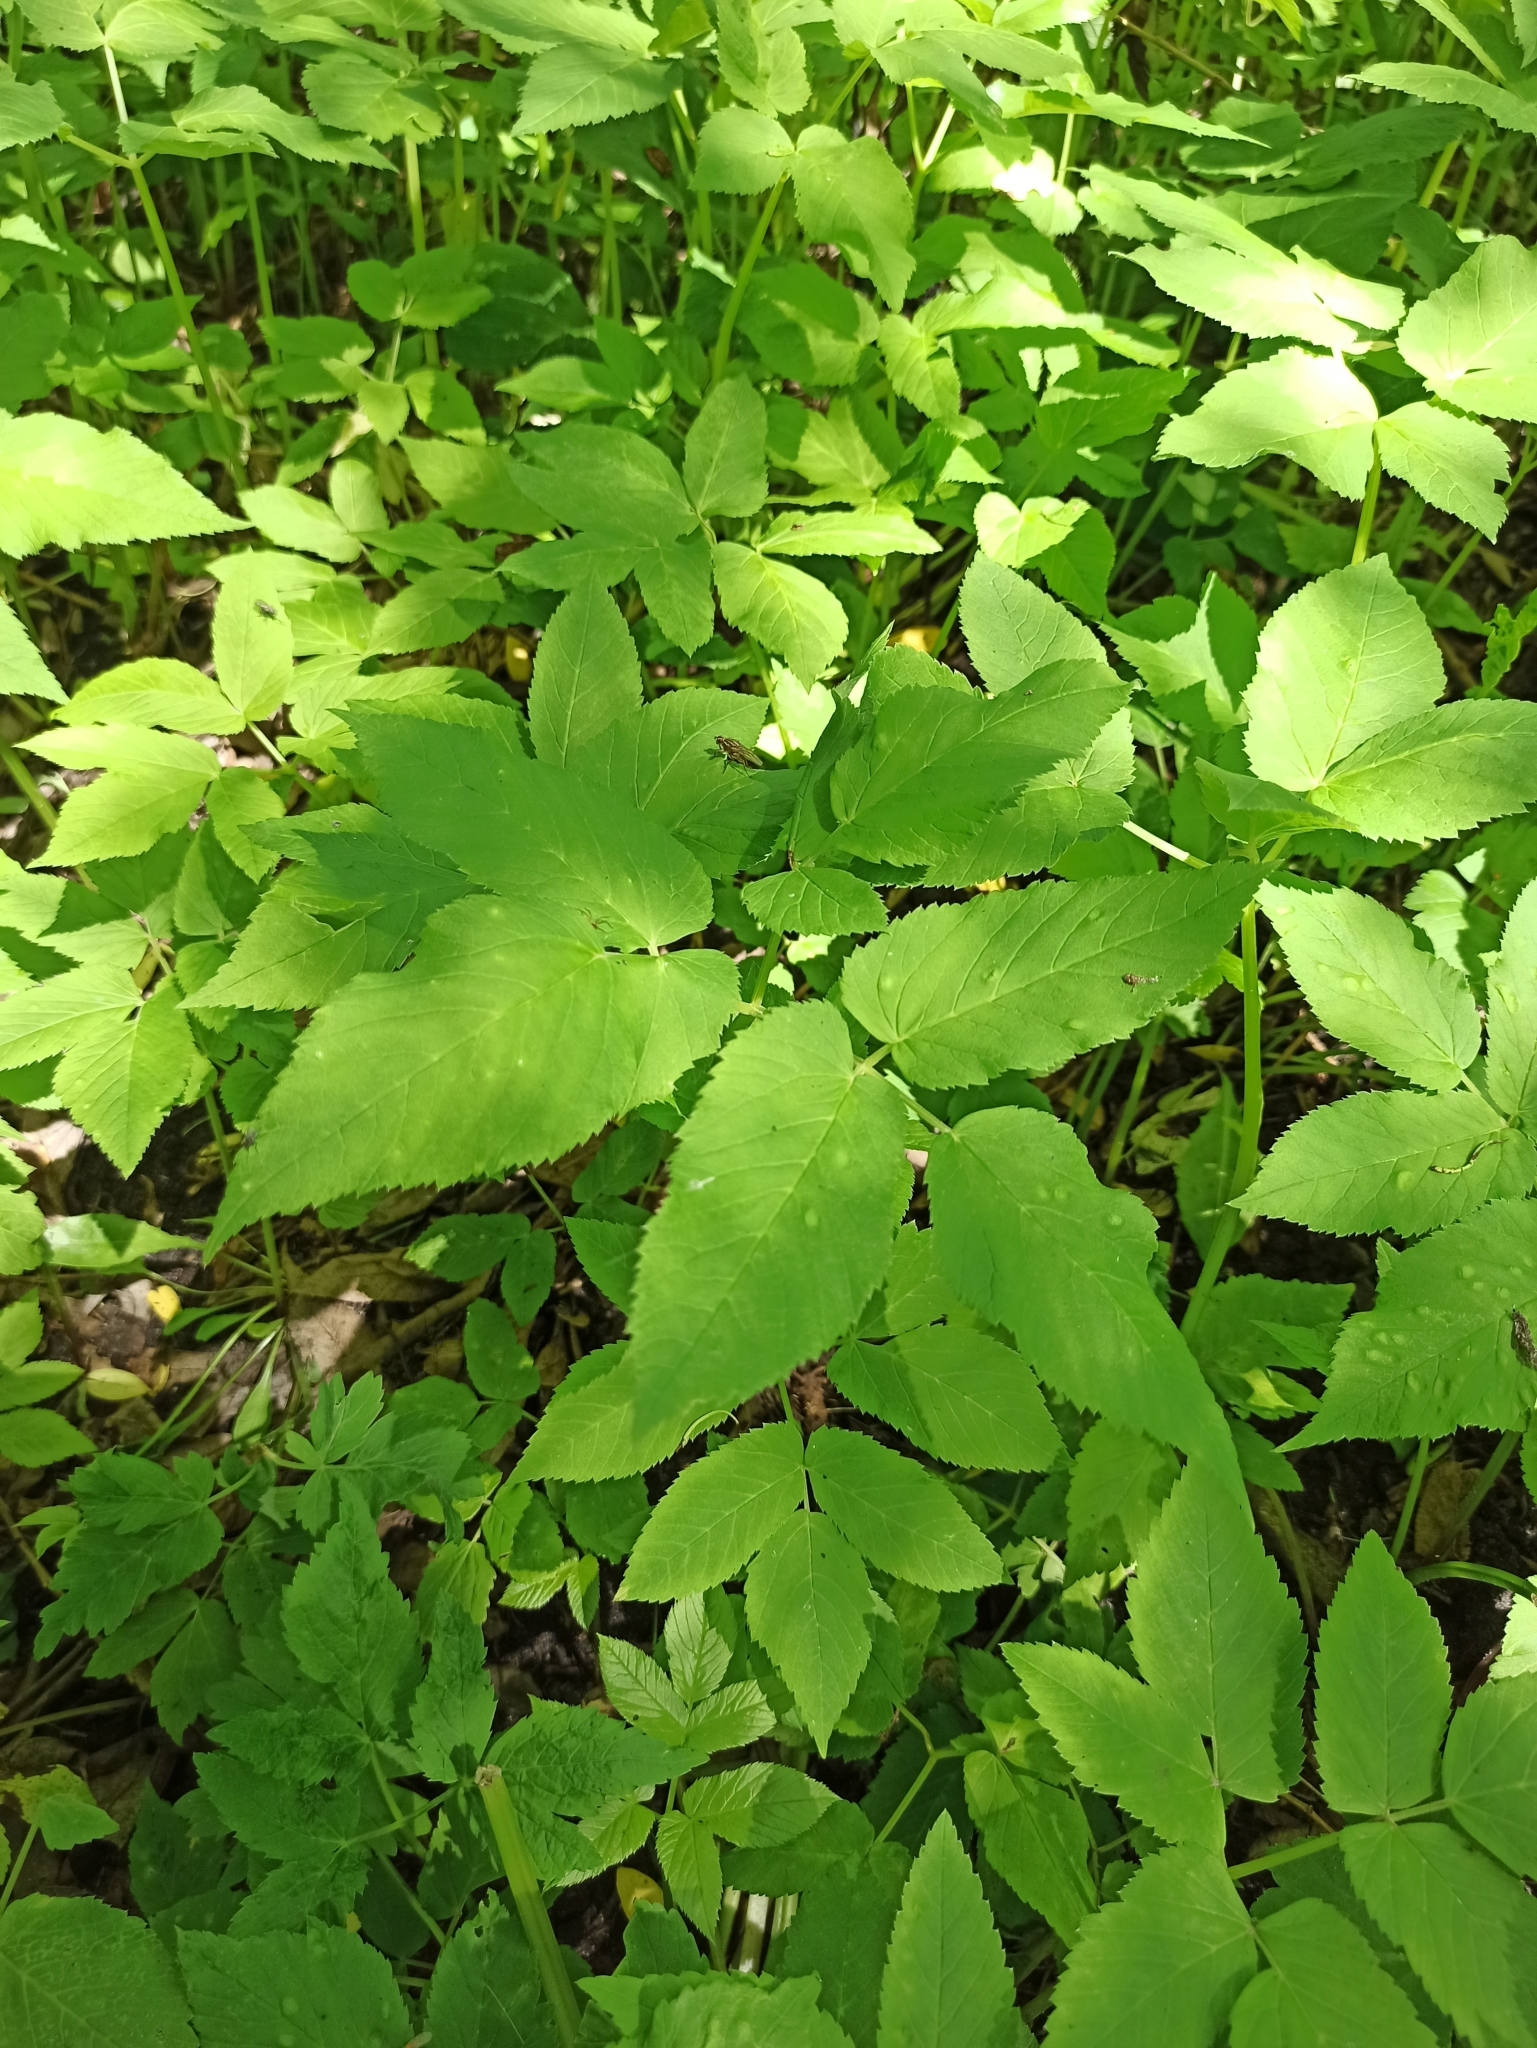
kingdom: Plantae
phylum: Tracheophyta
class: Magnoliopsida
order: Apiales
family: Apiaceae
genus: Aegopodium
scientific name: Aegopodium podagraria
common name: Ground-elder
